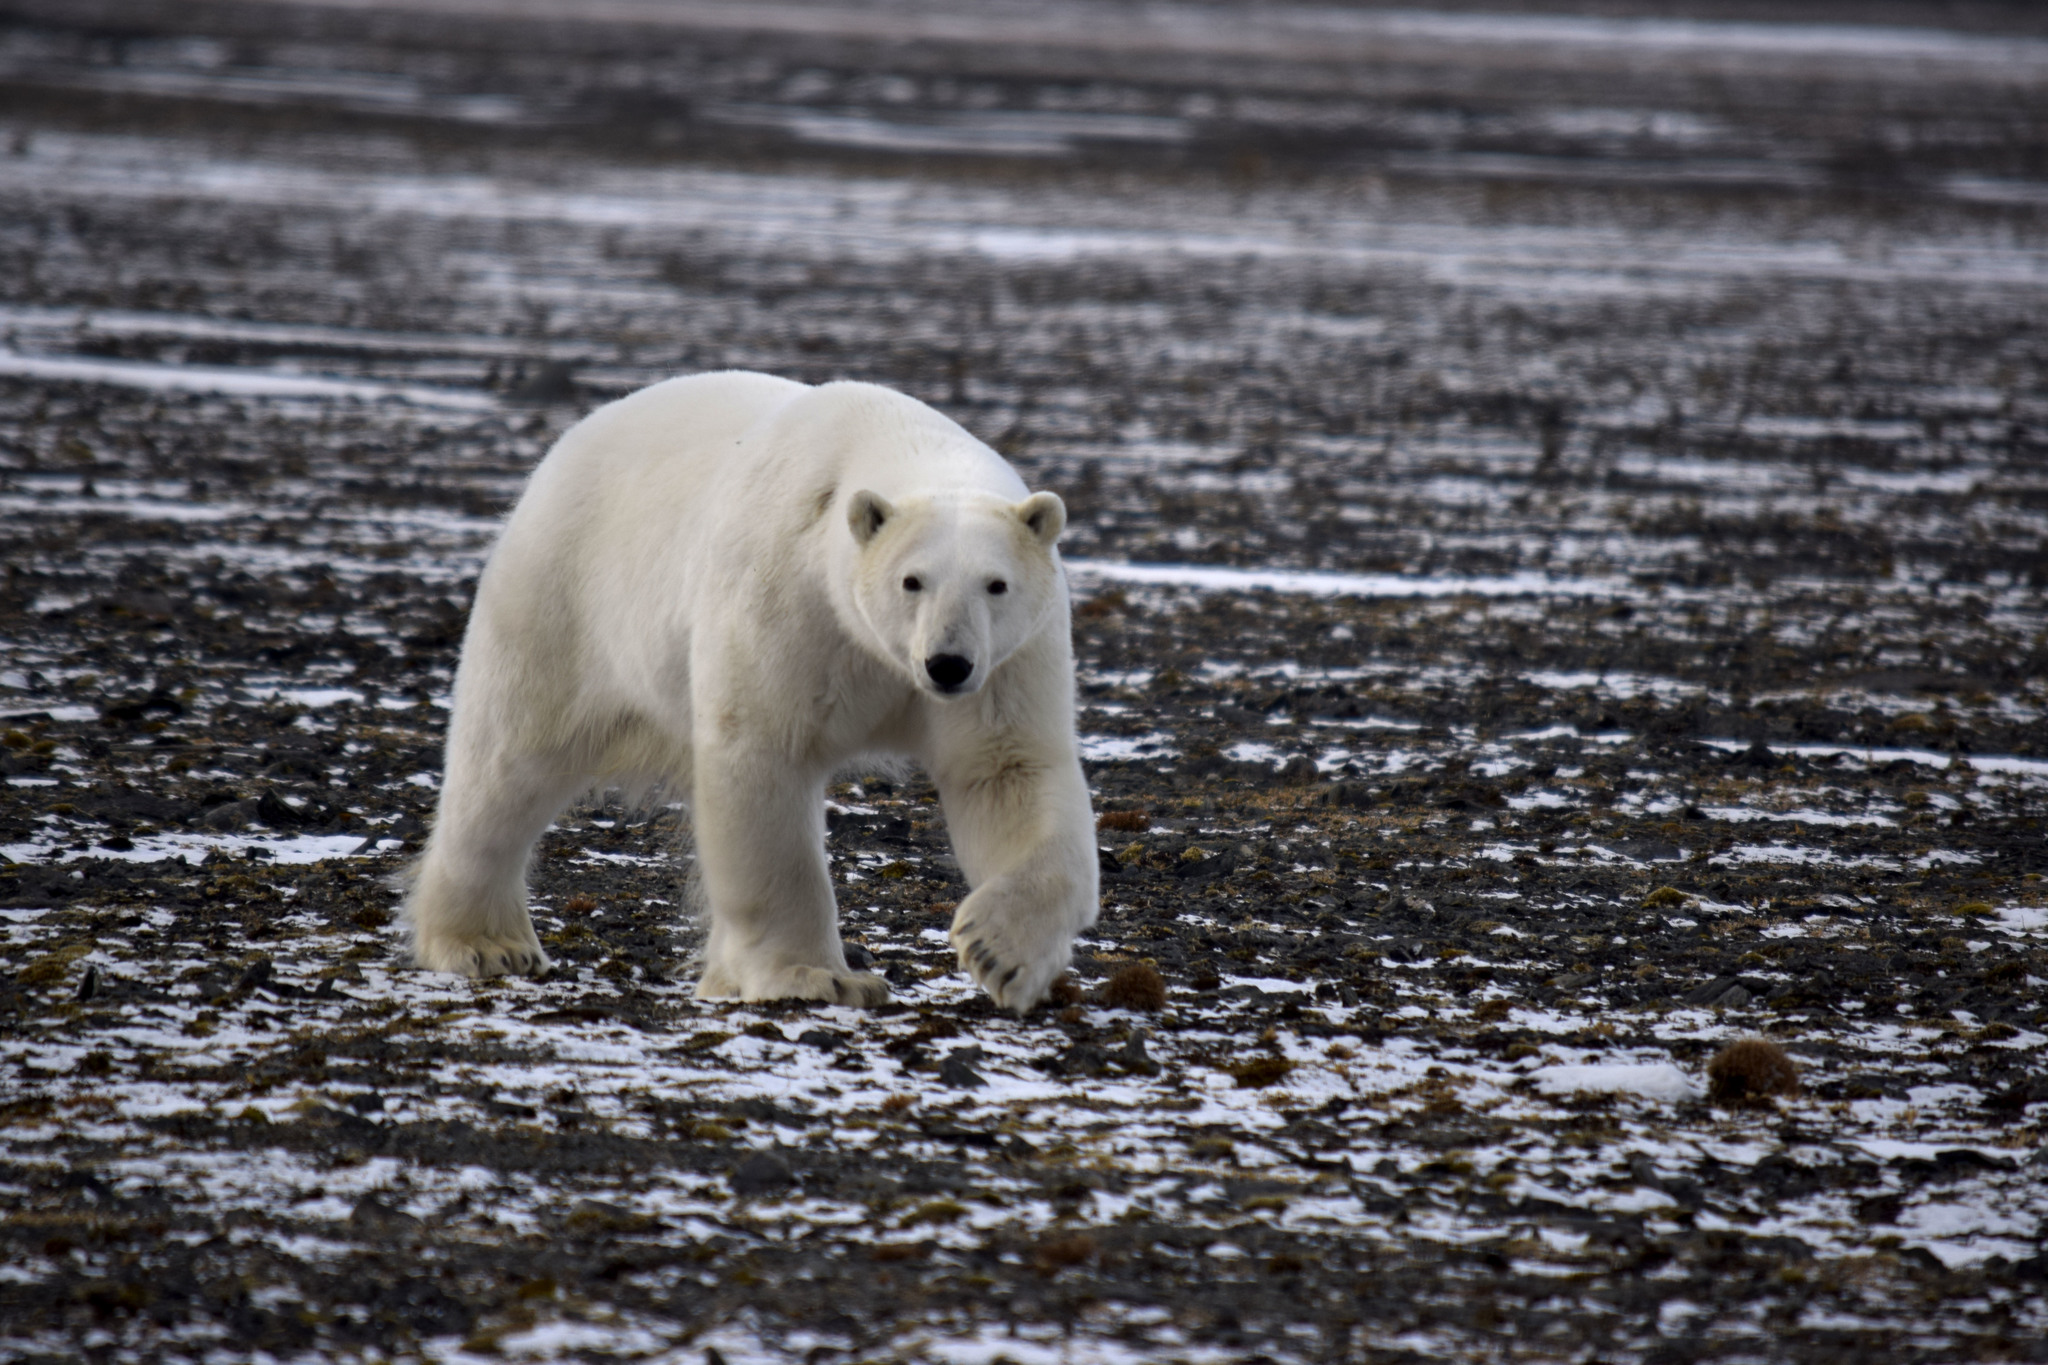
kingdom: Animalia
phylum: Chordata
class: Mammalia
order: Carnivora
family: Ursidae
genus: Ursus
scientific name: Ursus maritimus
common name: Polar bear
